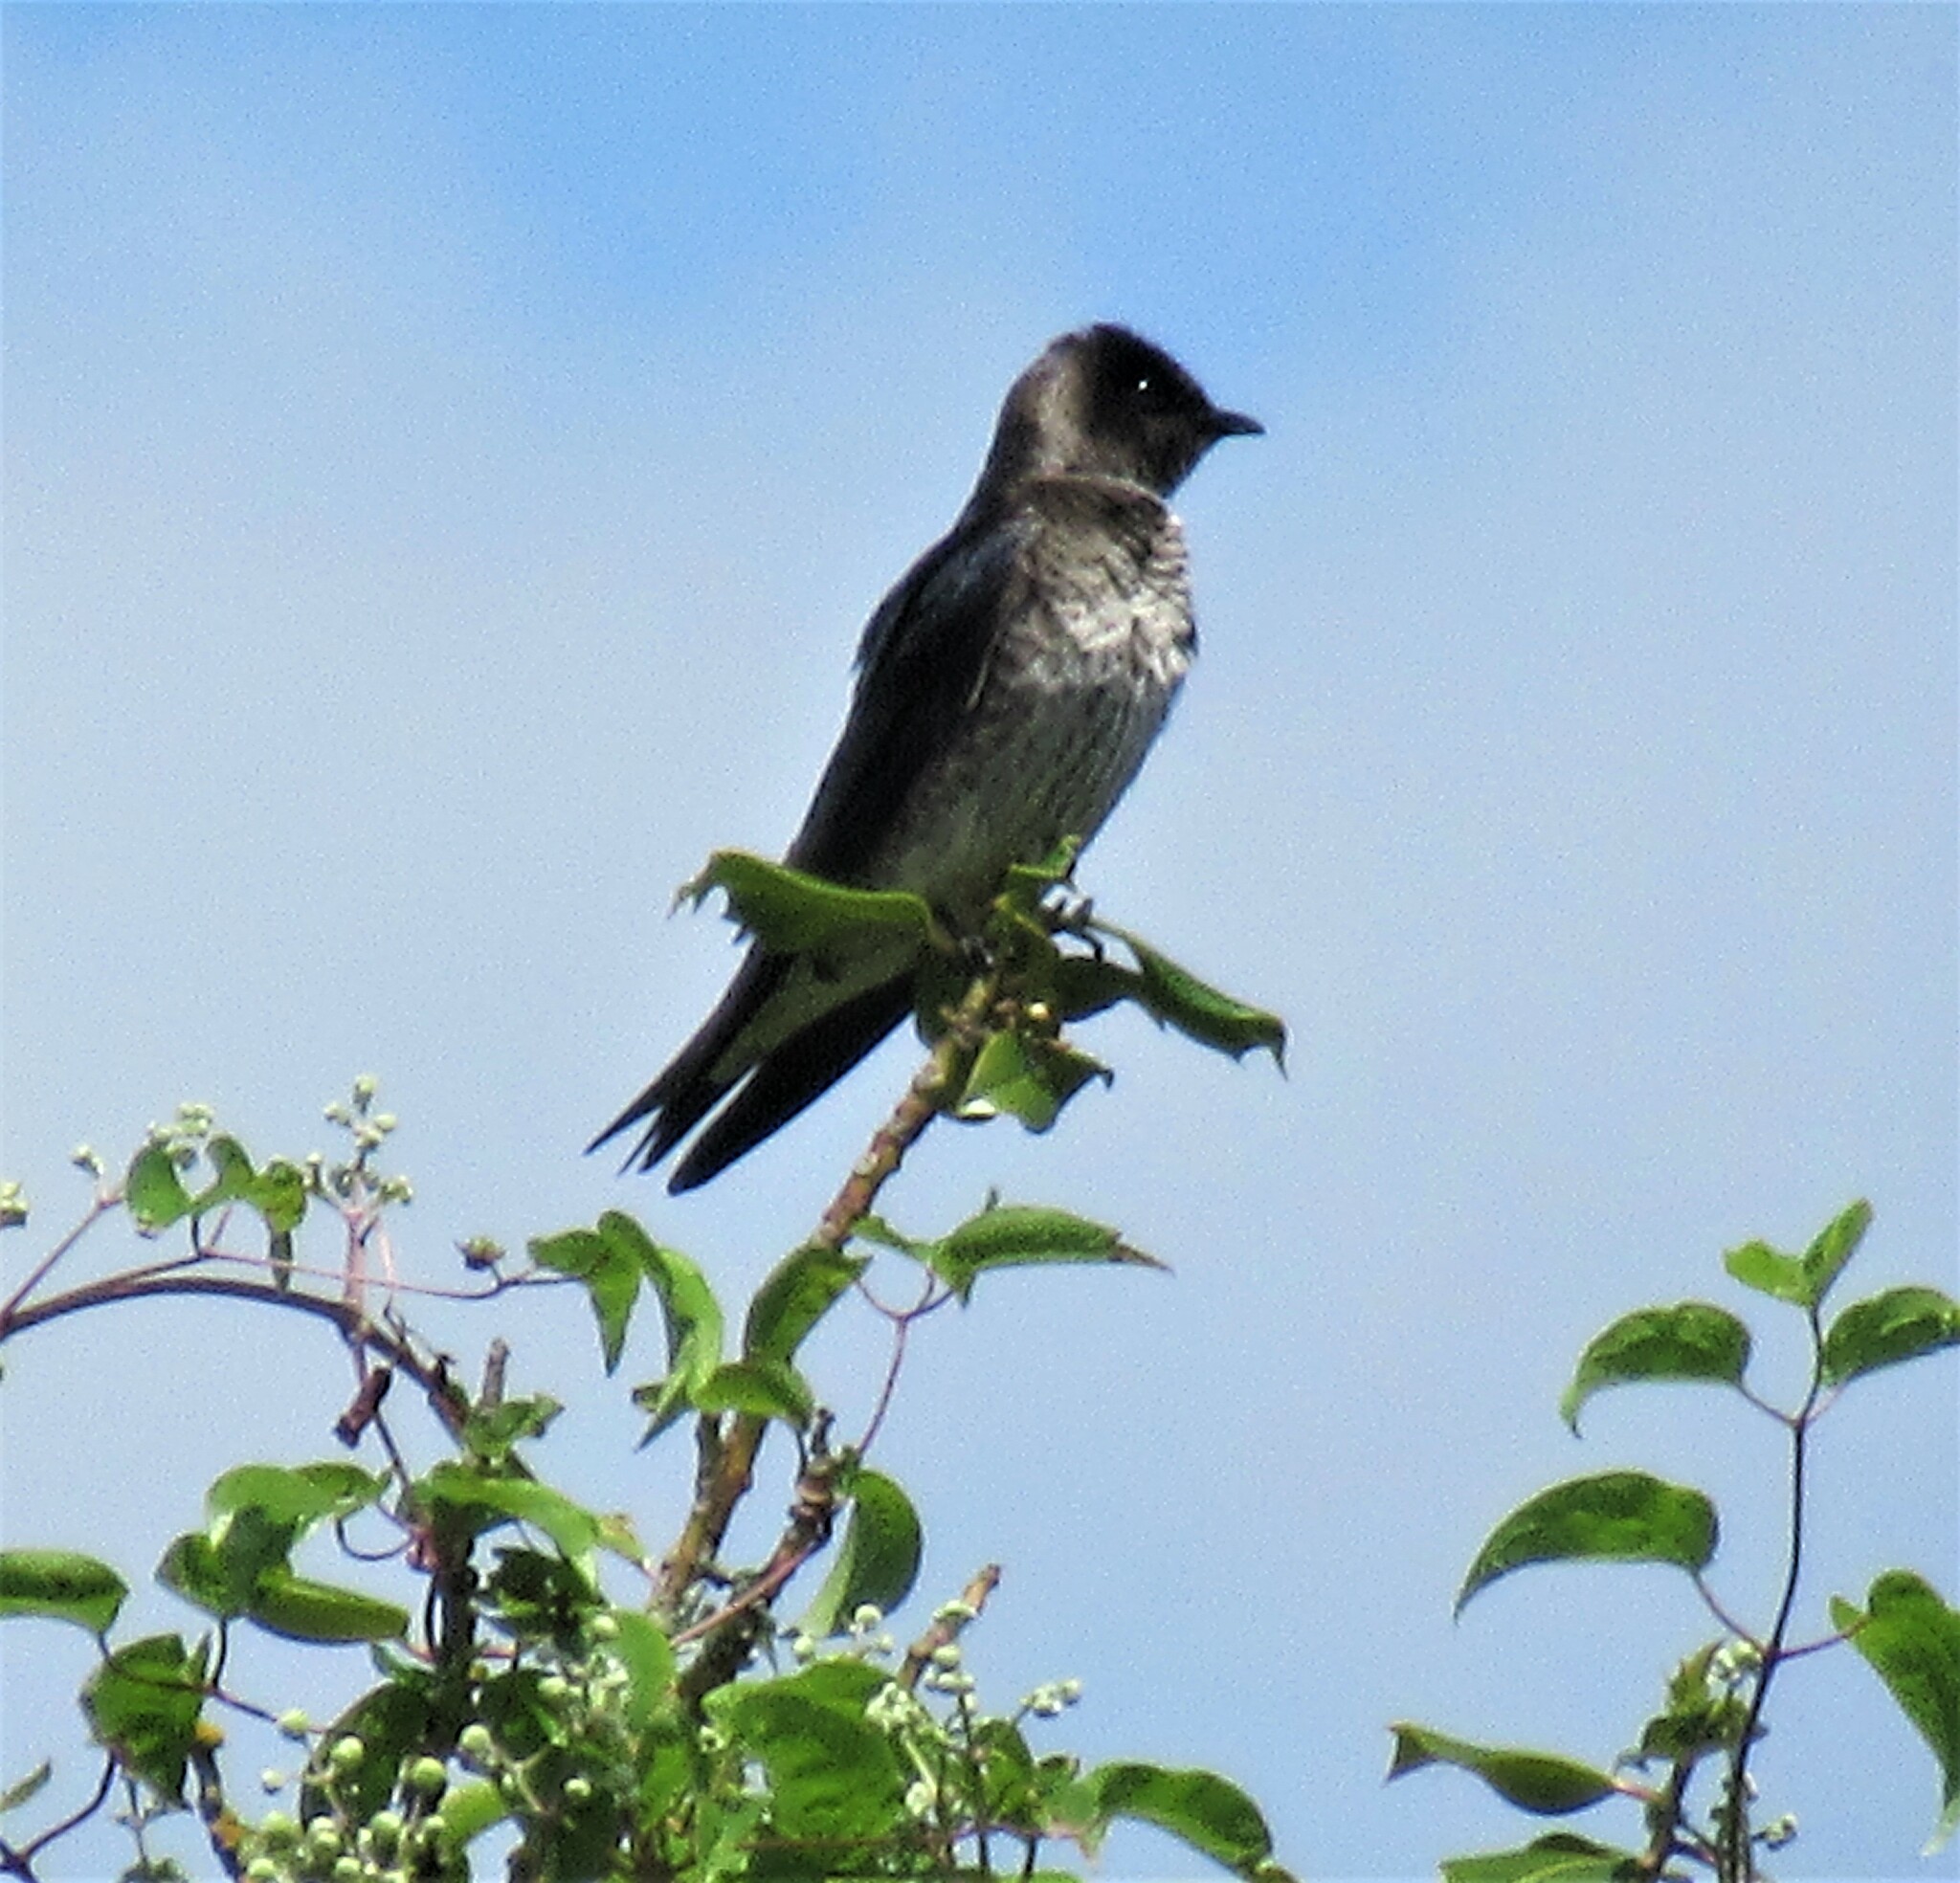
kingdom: Animalia
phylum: Chordata
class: Aves
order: Passeriformes
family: Hirundinidae
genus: Progne
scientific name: Progne subis
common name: Purple martin
